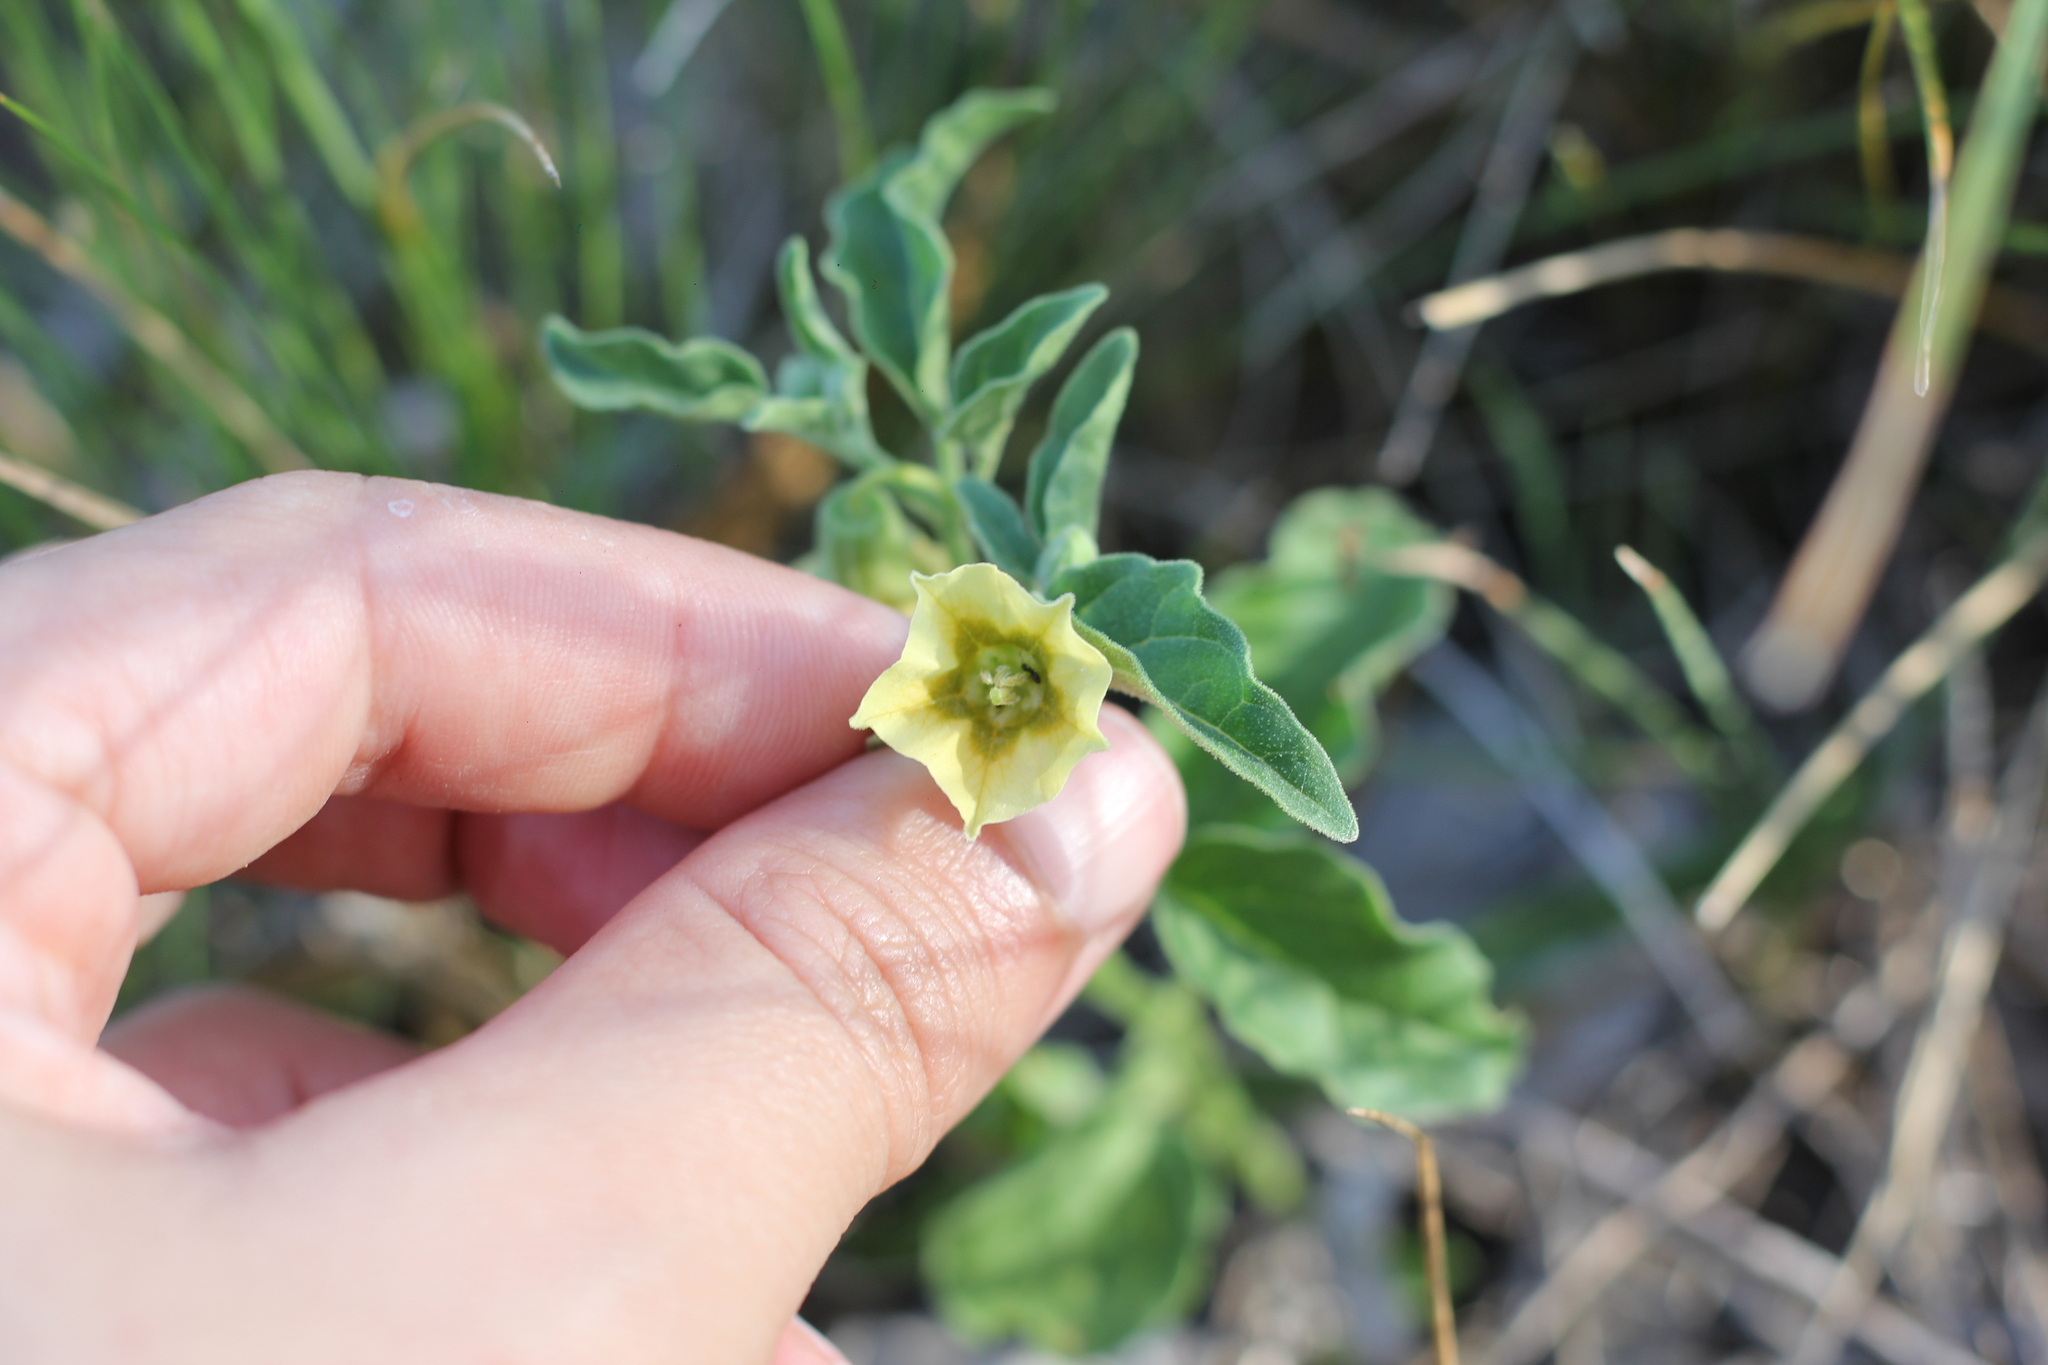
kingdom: Plantae
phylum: Tracheophyta
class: Magnoliopsida
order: Solanales
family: Solanaceae
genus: Physalis
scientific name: Physalis viscosa
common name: Stellate ground-cherry
